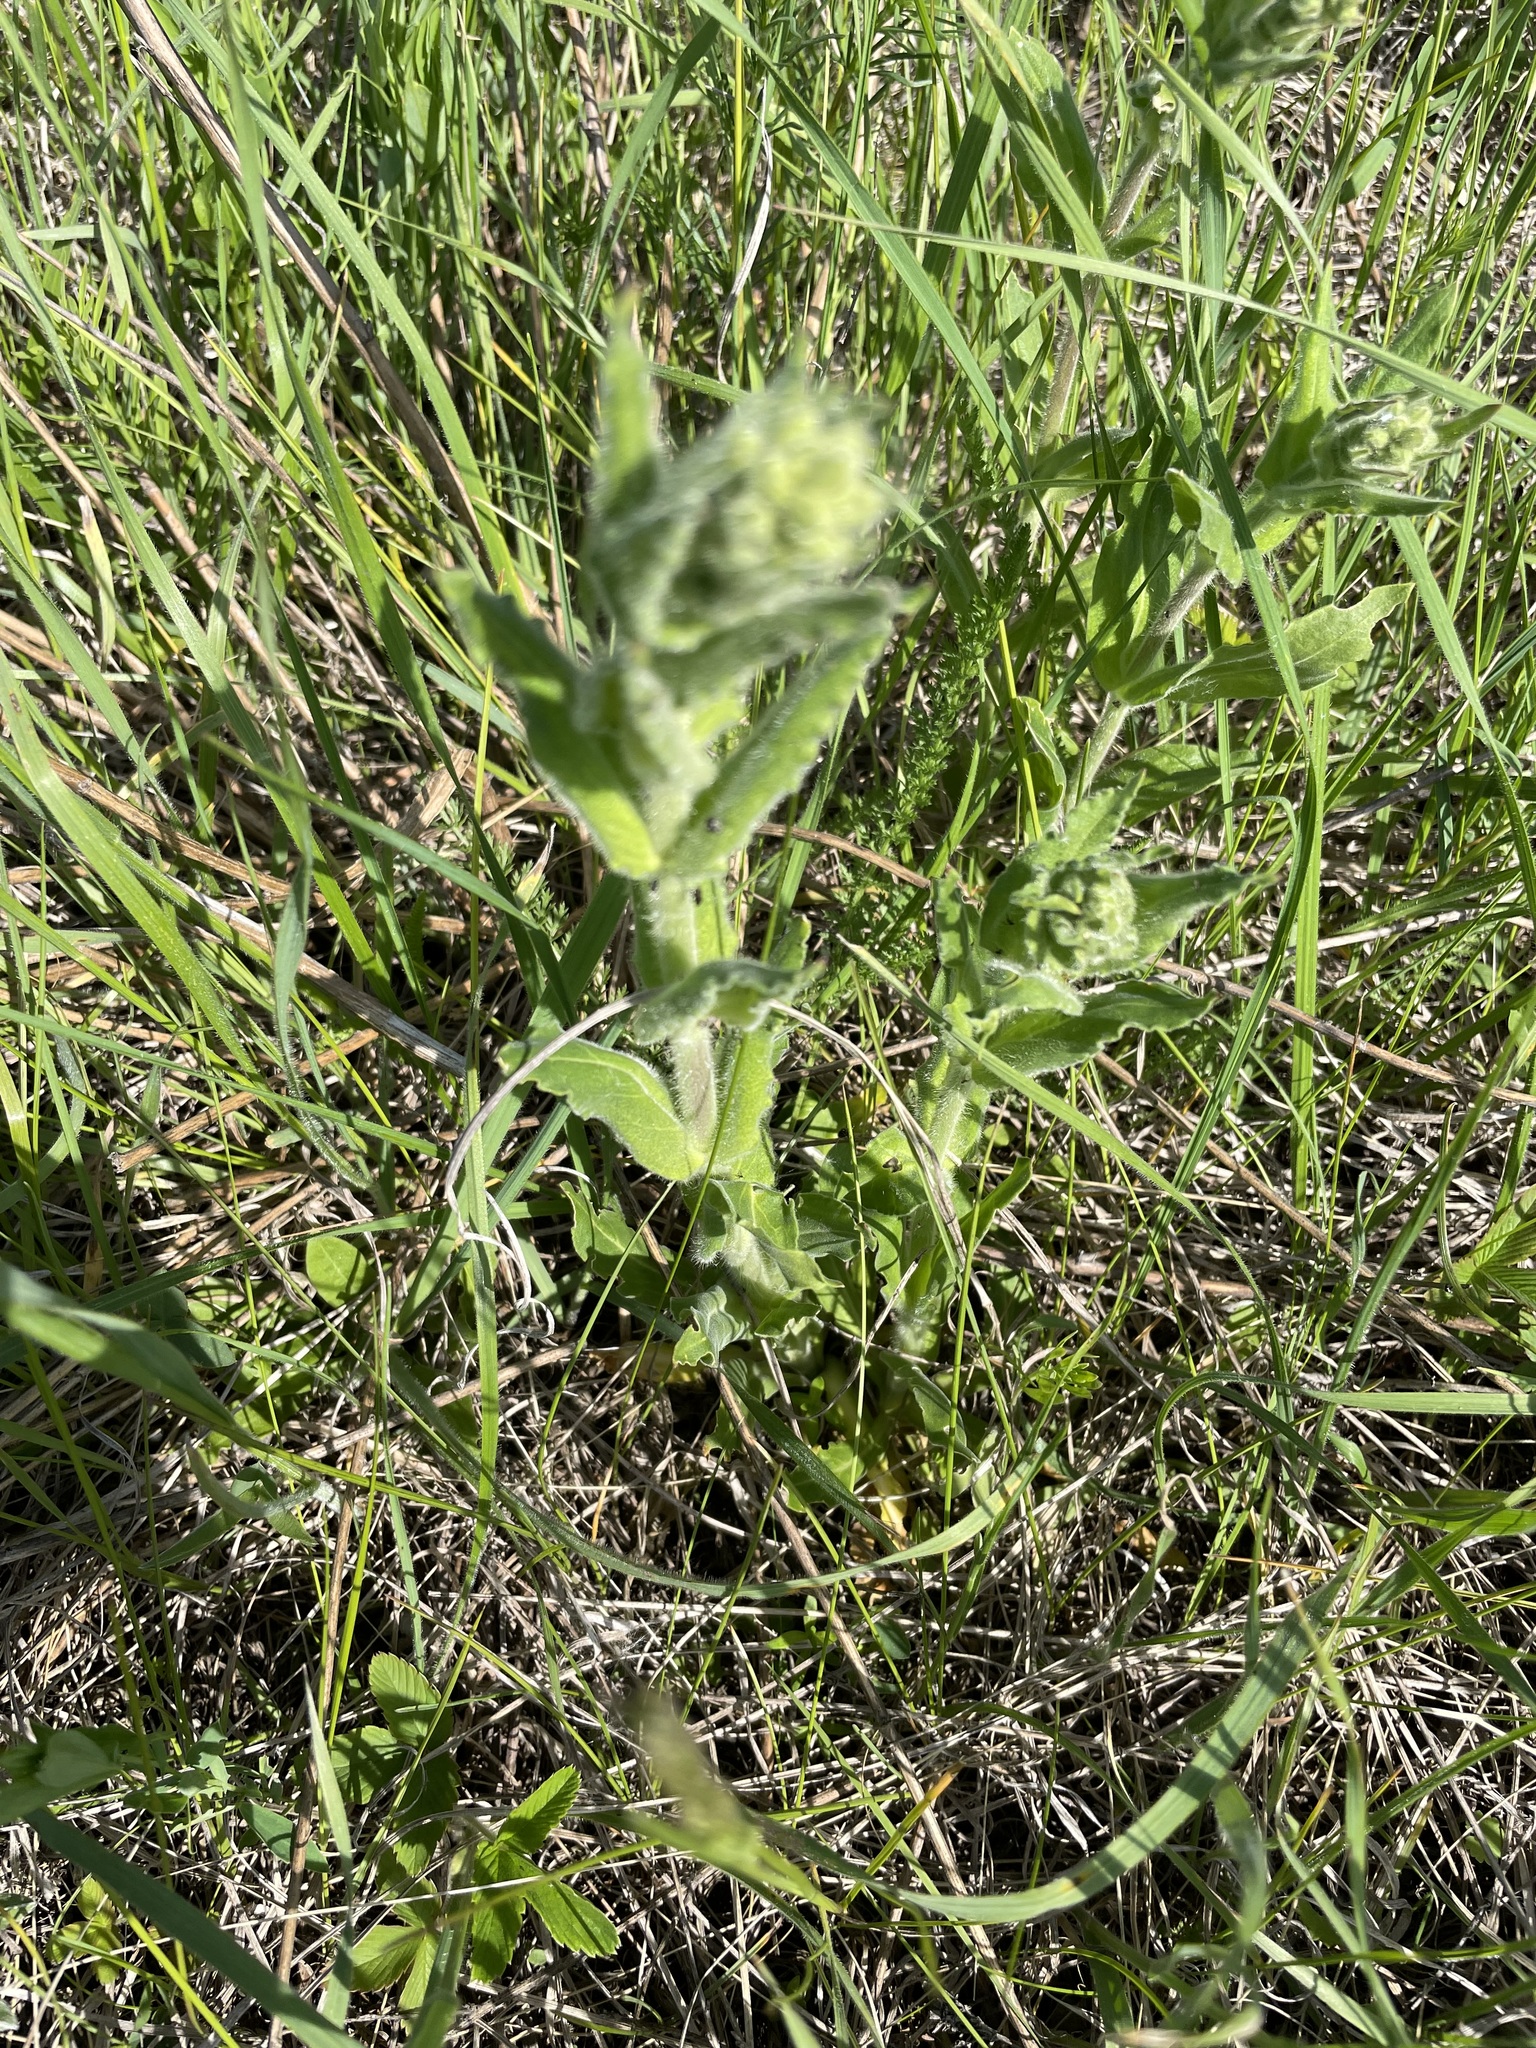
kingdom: Plantae
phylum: Tracheophyta
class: Magnoliopsida
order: Caryophyllales
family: Caryophyllaceae
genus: Silene
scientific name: Silene viscosa
